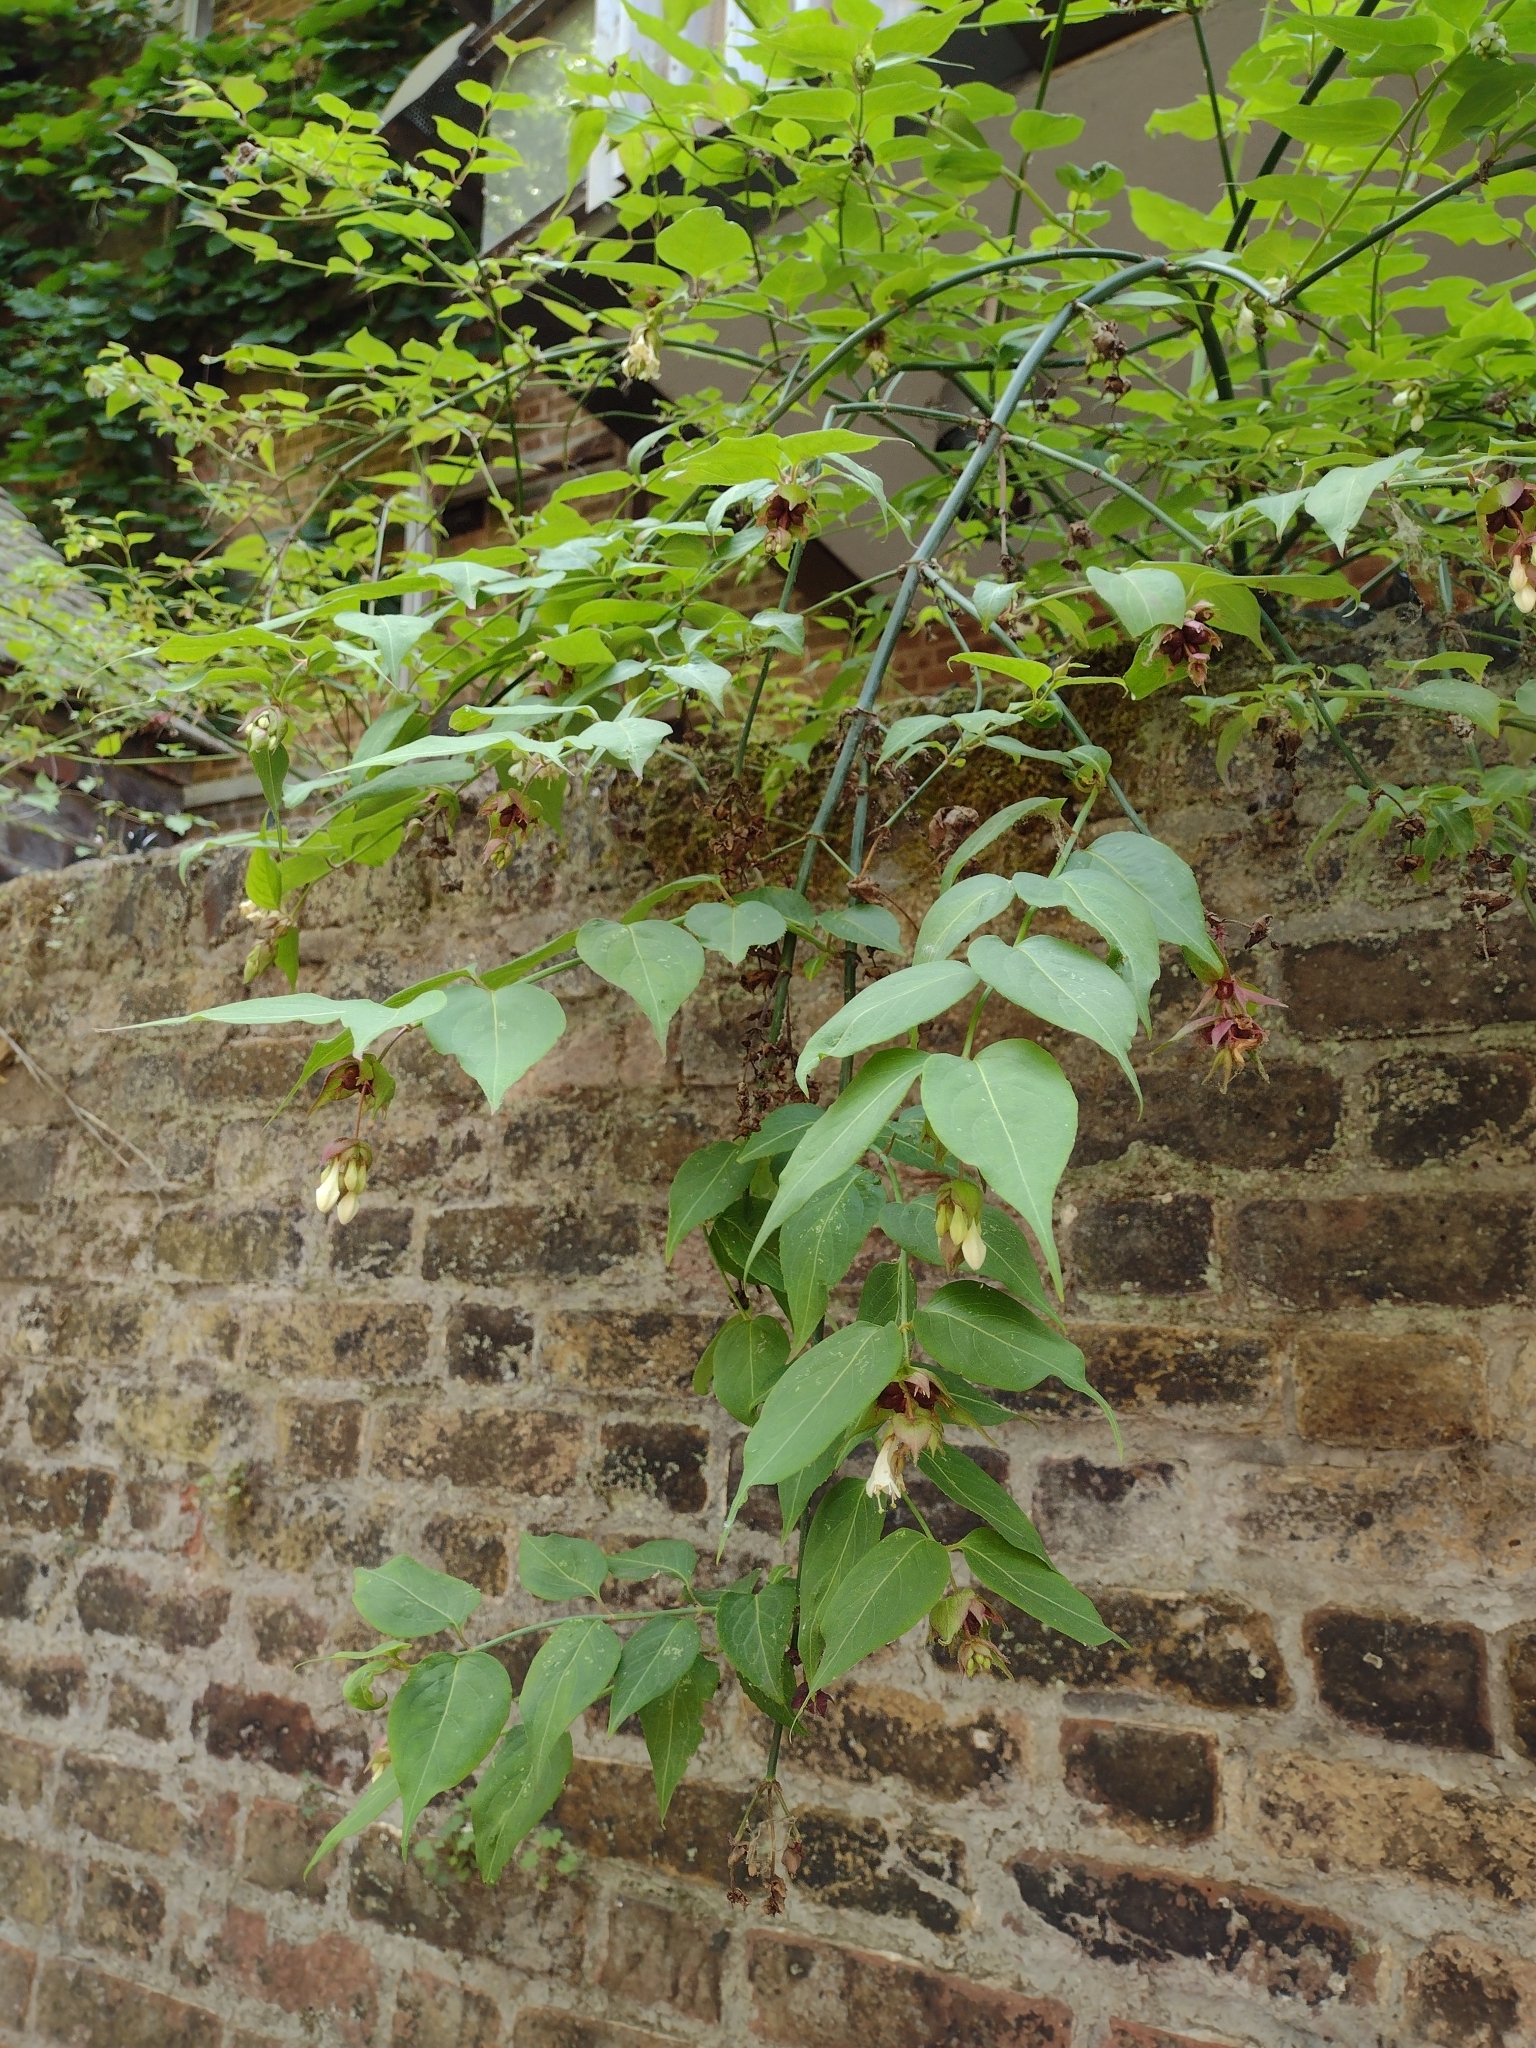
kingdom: Plantae
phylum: Tracheophyta
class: Magnoliopsida
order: Dipsacales
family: Caprifoliaceae
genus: Leycesteria
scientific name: Leycesteria formosa
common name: Himalayan honeysuckle
